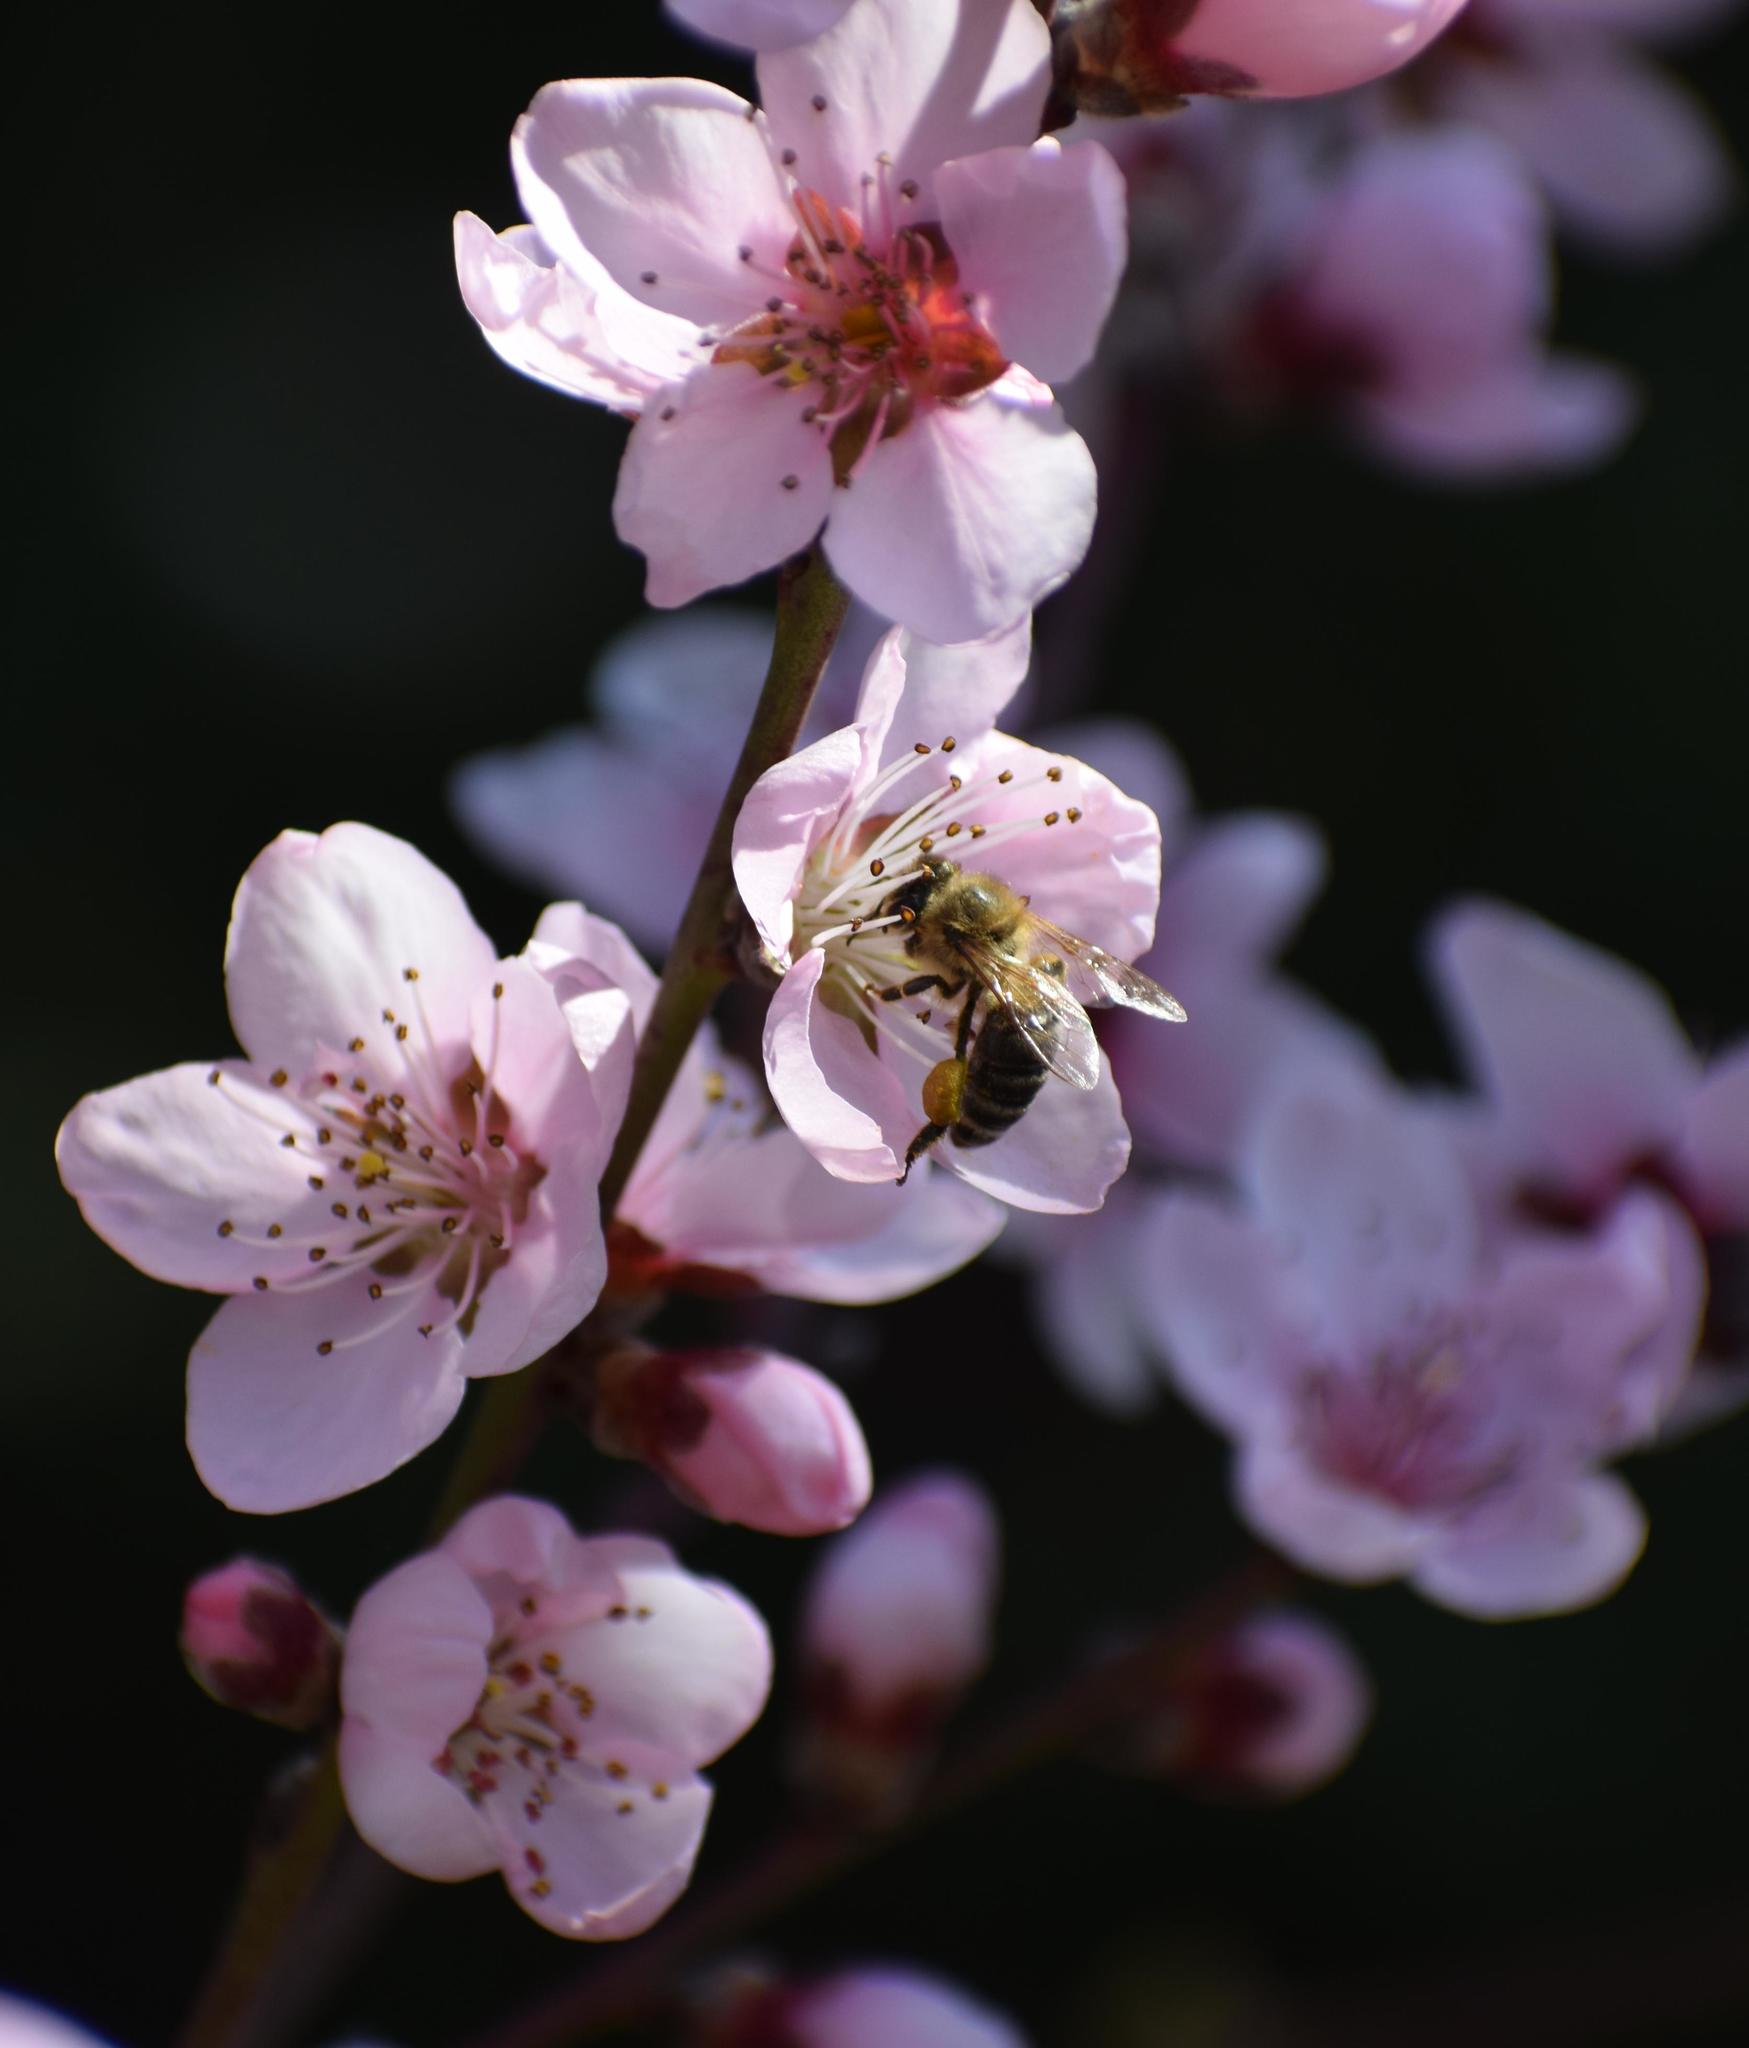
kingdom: Animalia
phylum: Arthropoda
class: Insecta
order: Hymenoptera
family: Apidae
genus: Apis
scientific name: Apis mellifera
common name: Honey bee
